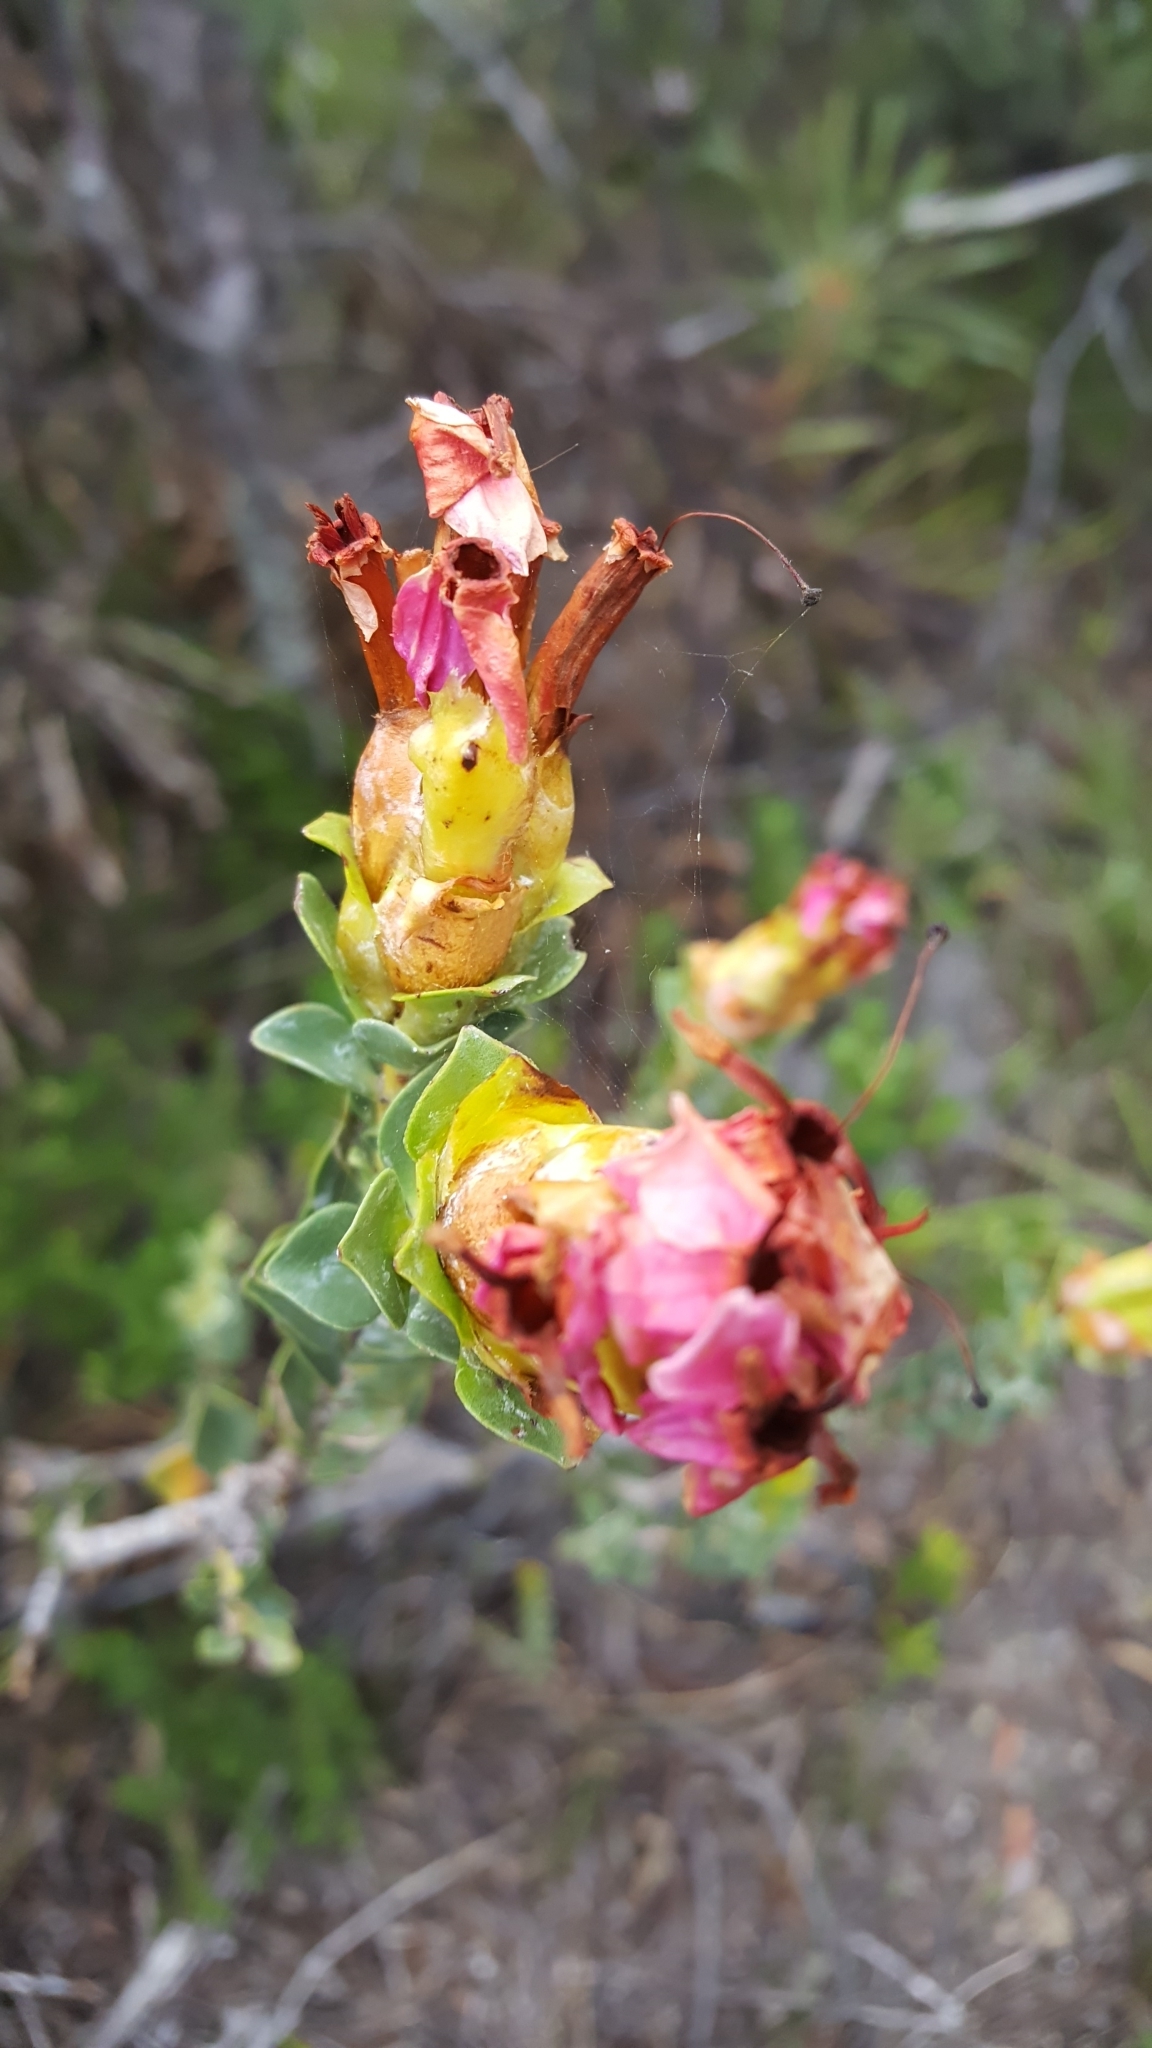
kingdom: Plantae
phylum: Tracheophyta
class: Magnoliopsida
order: Myrtales
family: Penaeaceae
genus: Saltera
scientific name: Saltera sarcocolla
